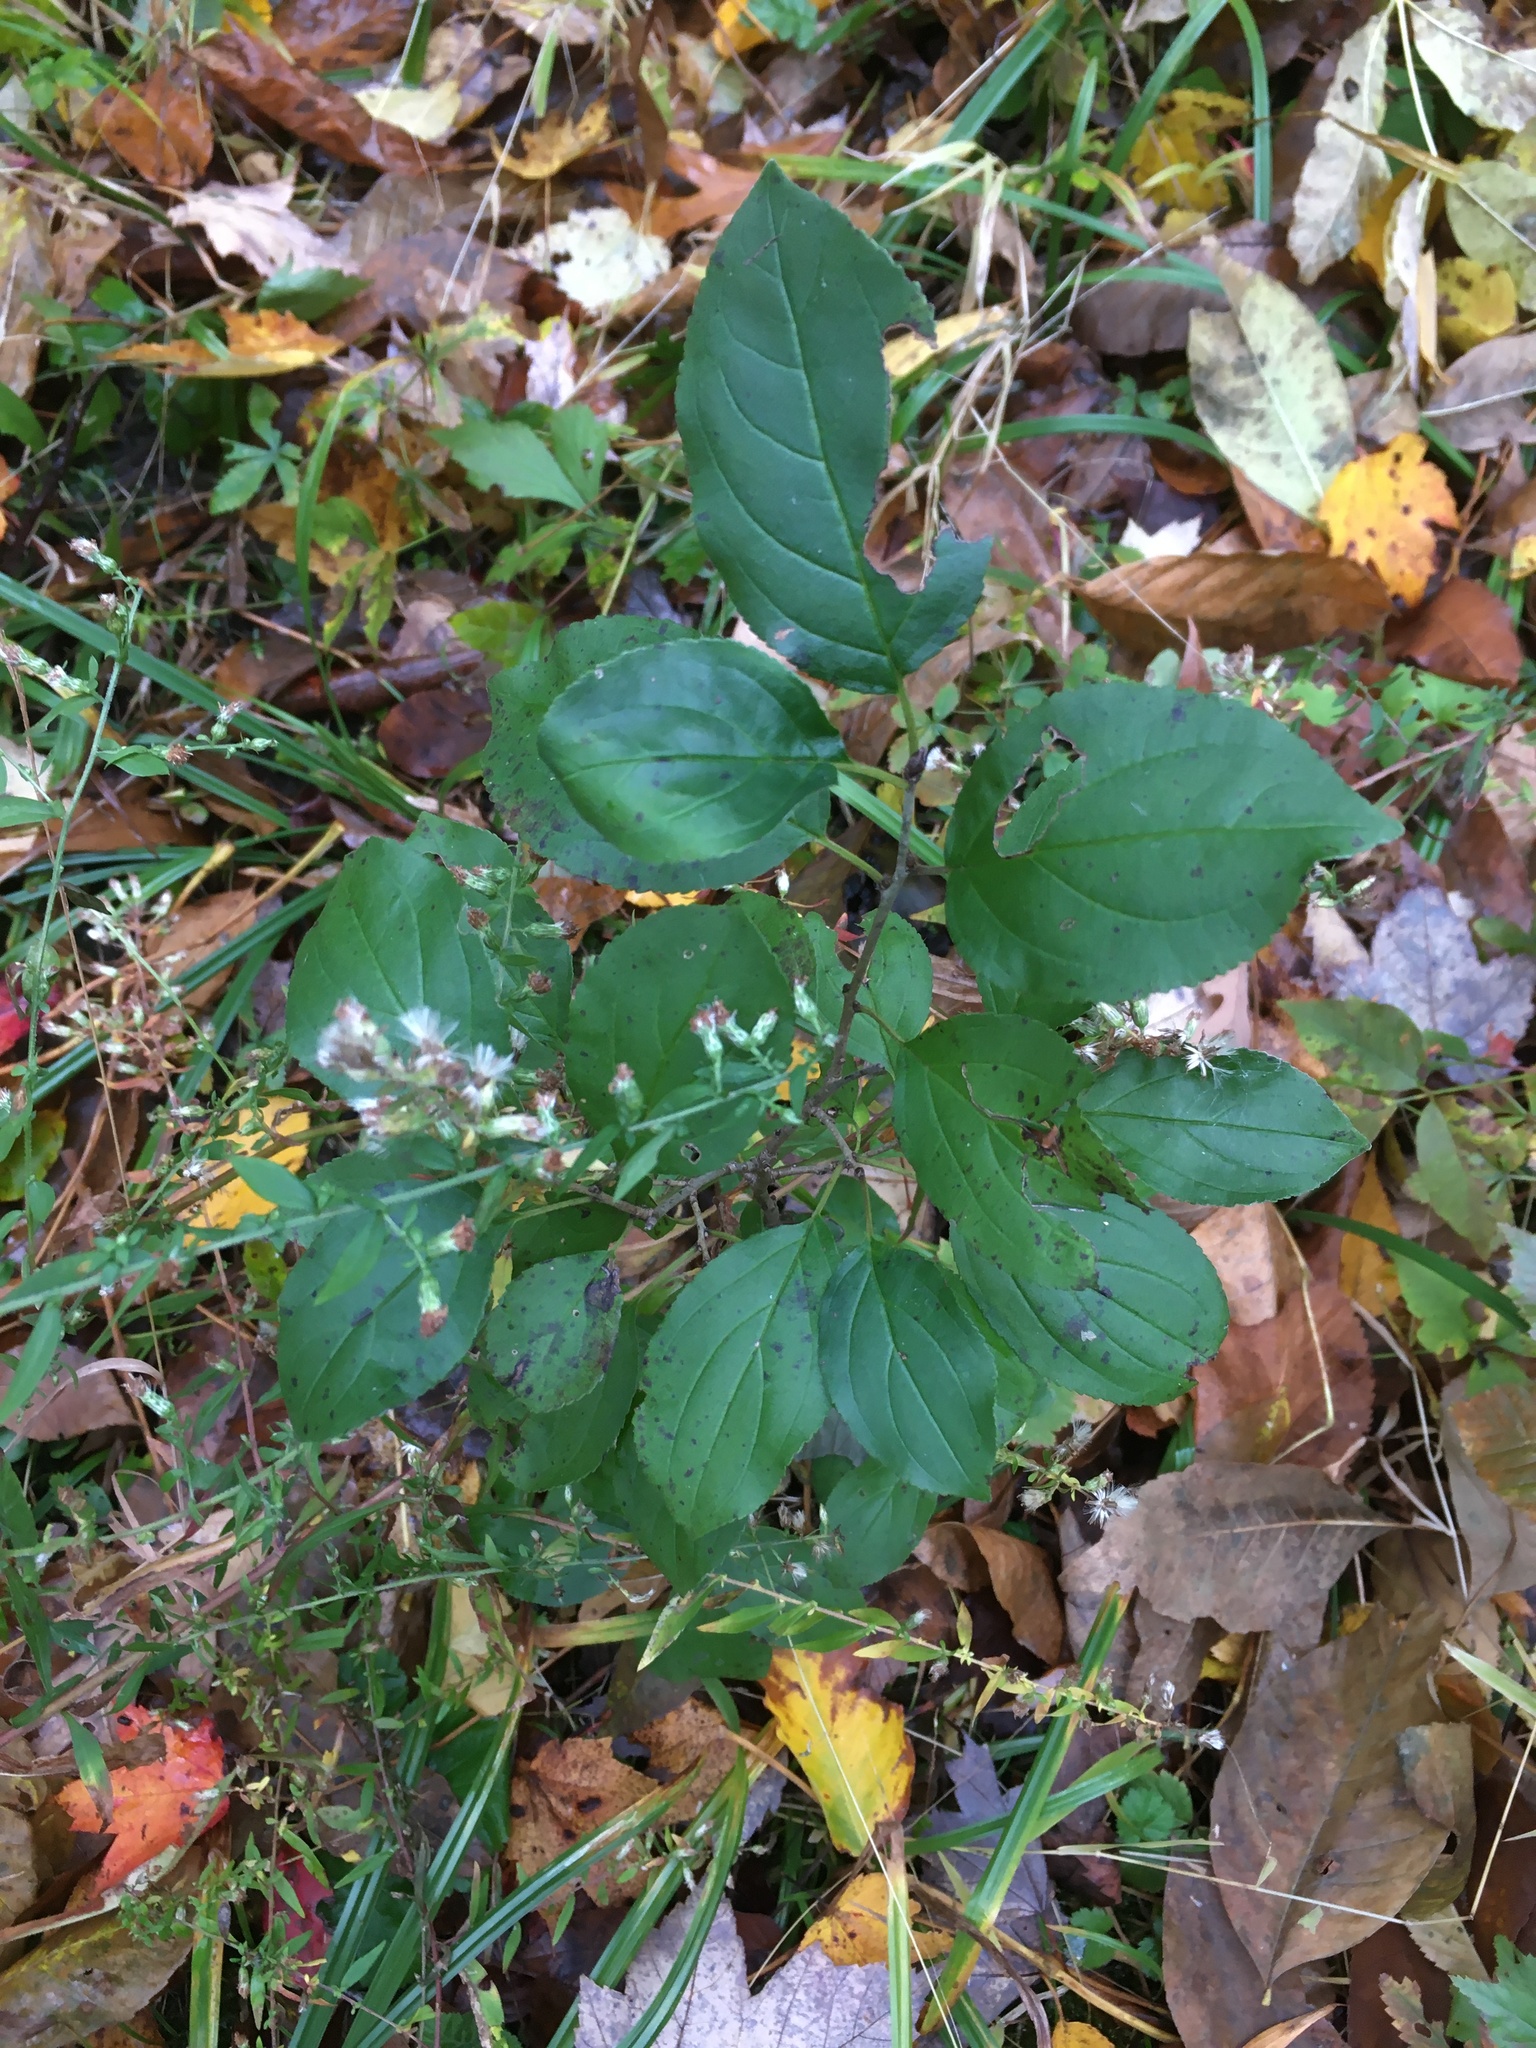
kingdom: Plantae
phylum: Tracheophyta
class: Magnoliopsida
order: Rosales
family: Rhamnaceae
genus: Rhamnus
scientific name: Rhamnus cathartica
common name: Common buckthorn
